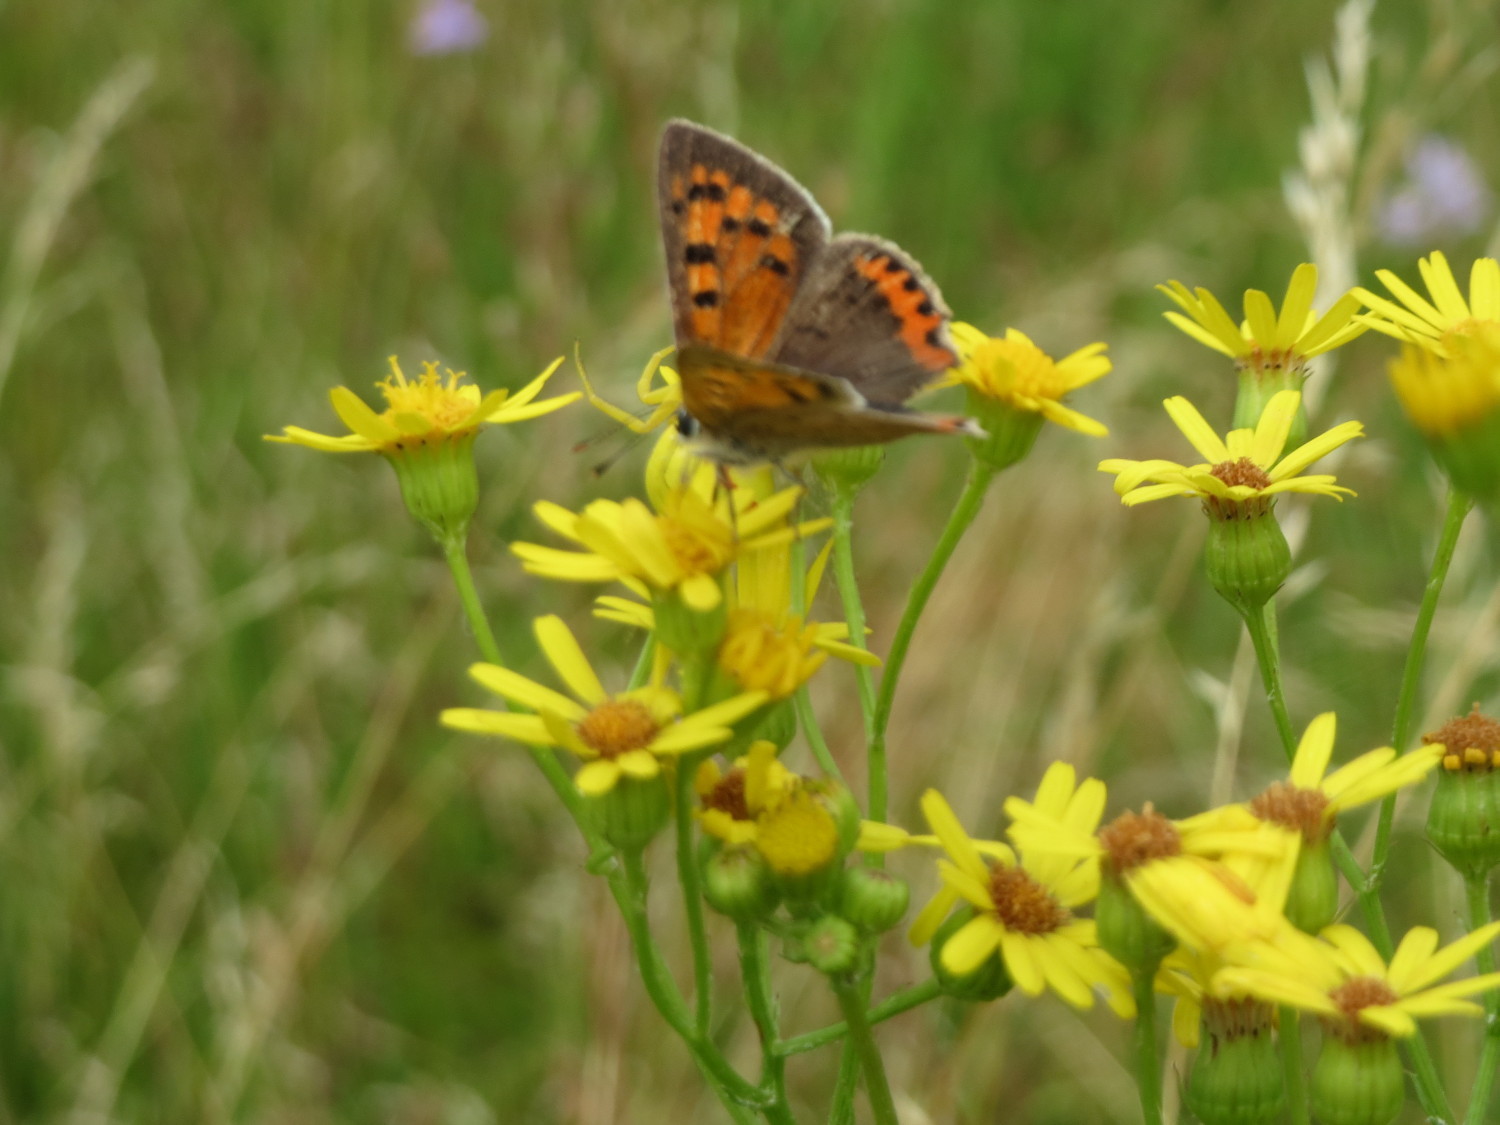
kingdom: Animalia
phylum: Arthropoda
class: Insecta
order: Lepidoptera
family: Lycaenidae
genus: Lycaena
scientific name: Lycaena phlaeas
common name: Small copper
